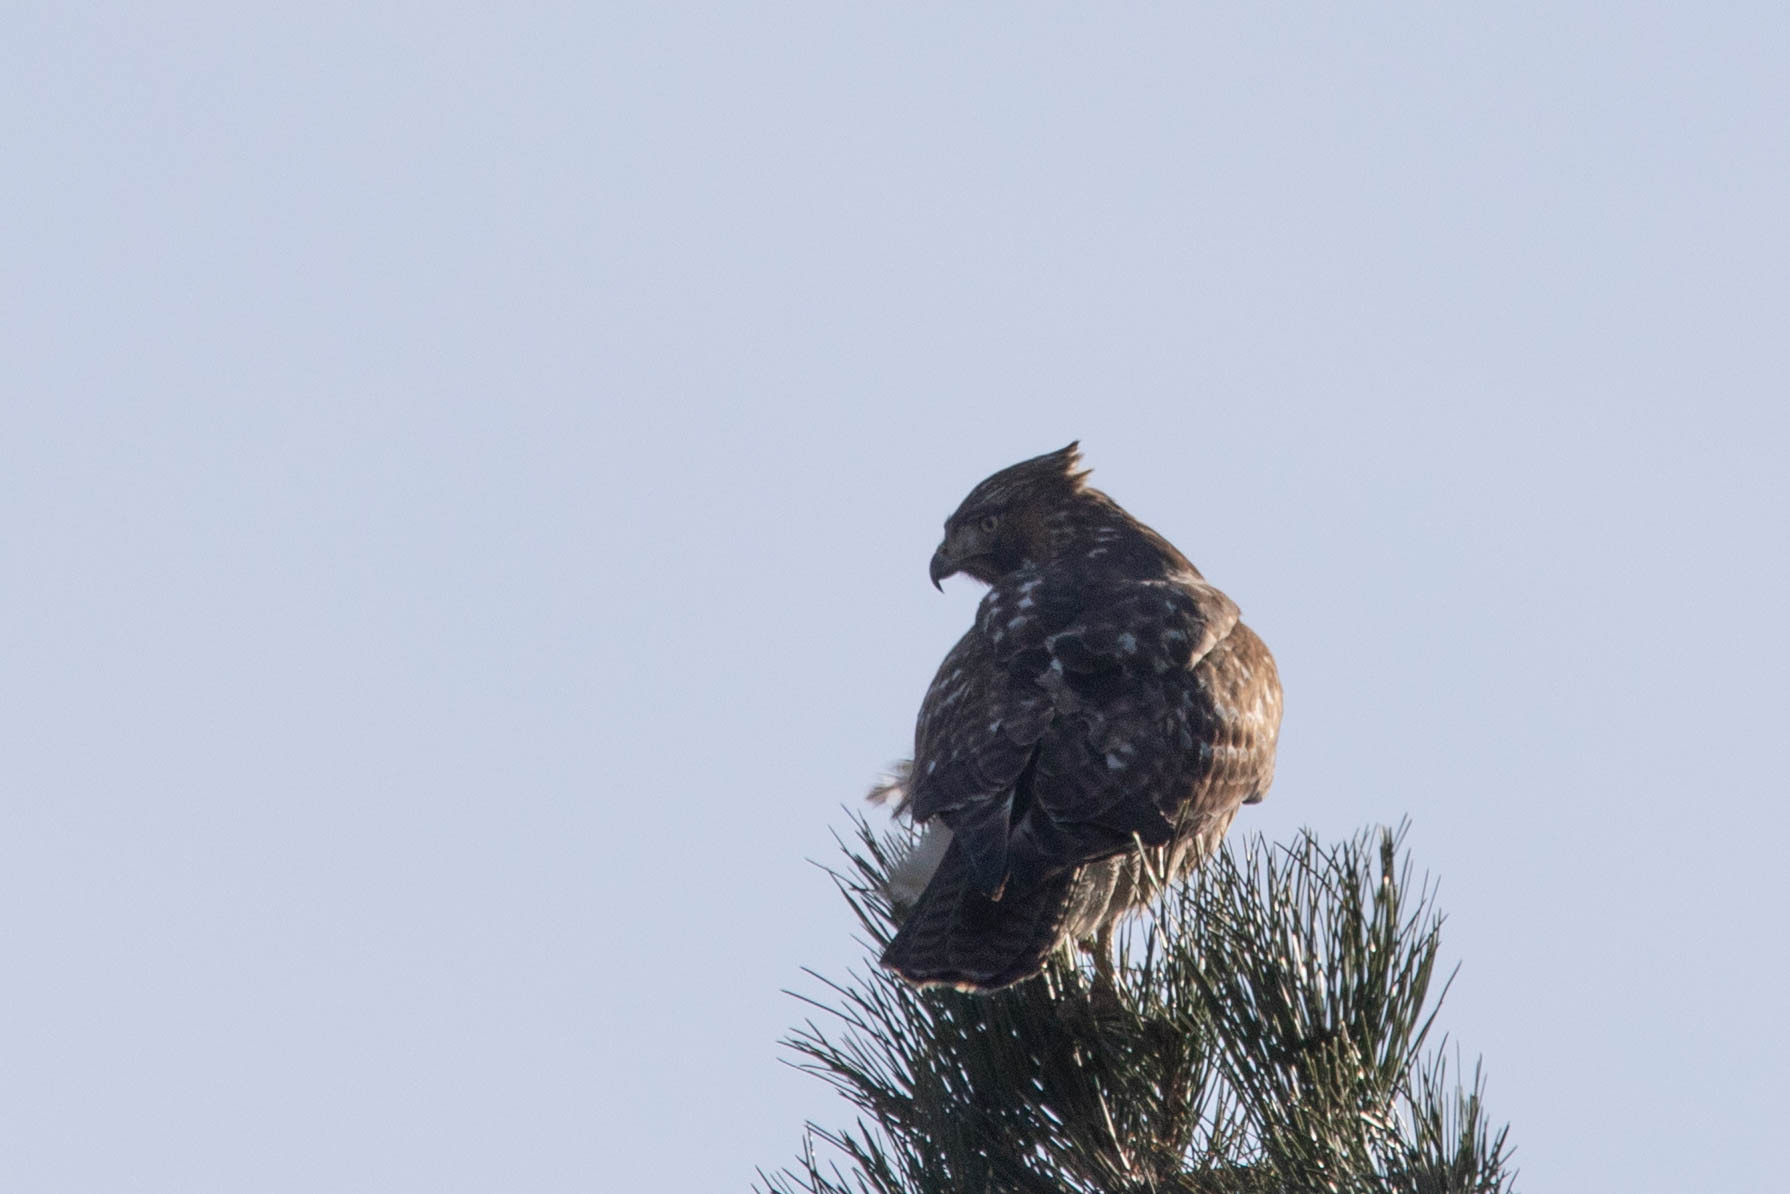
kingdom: Animalia
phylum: Chordata
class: Aves
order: Accipitriformes
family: Accipitridae
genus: Buteo
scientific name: Buteo jamaicensis
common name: Red-tailed hawk
